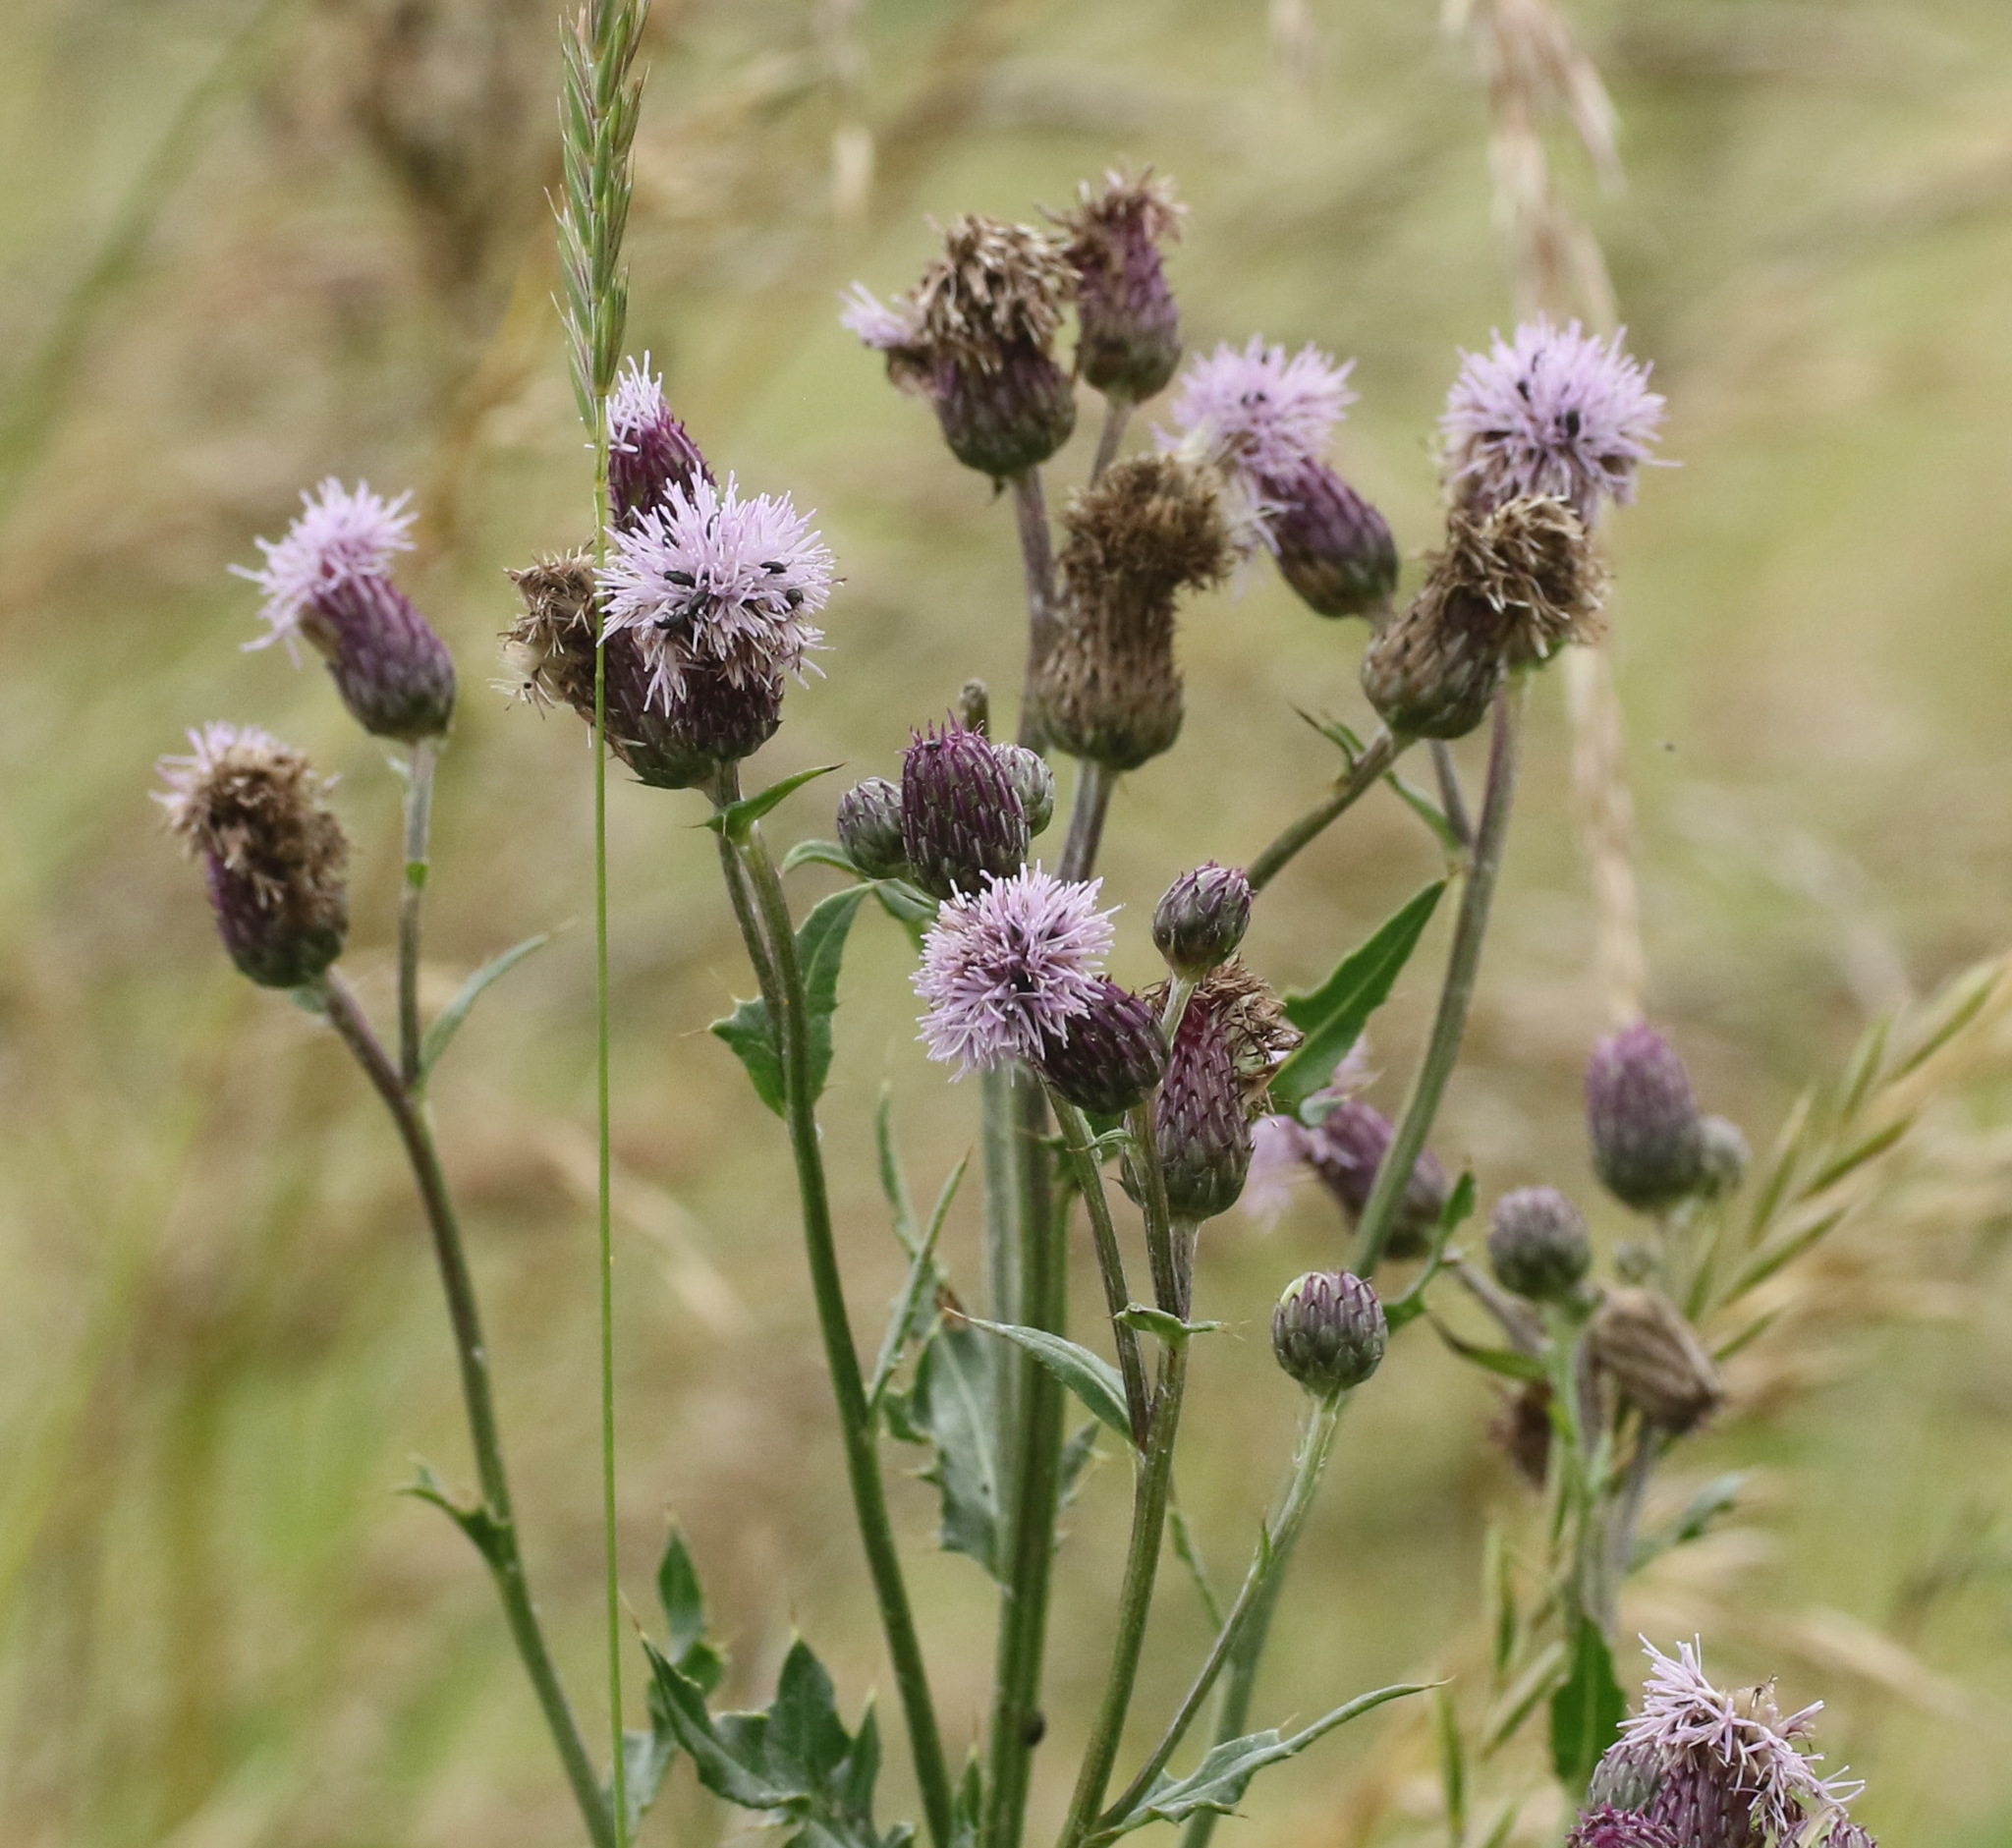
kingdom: Plantae
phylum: Tracheophyta
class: Magnoliopsida
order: Asterales
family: Asteraceae
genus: Cirsium
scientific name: Cirsium arvense
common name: Creeping thistle
